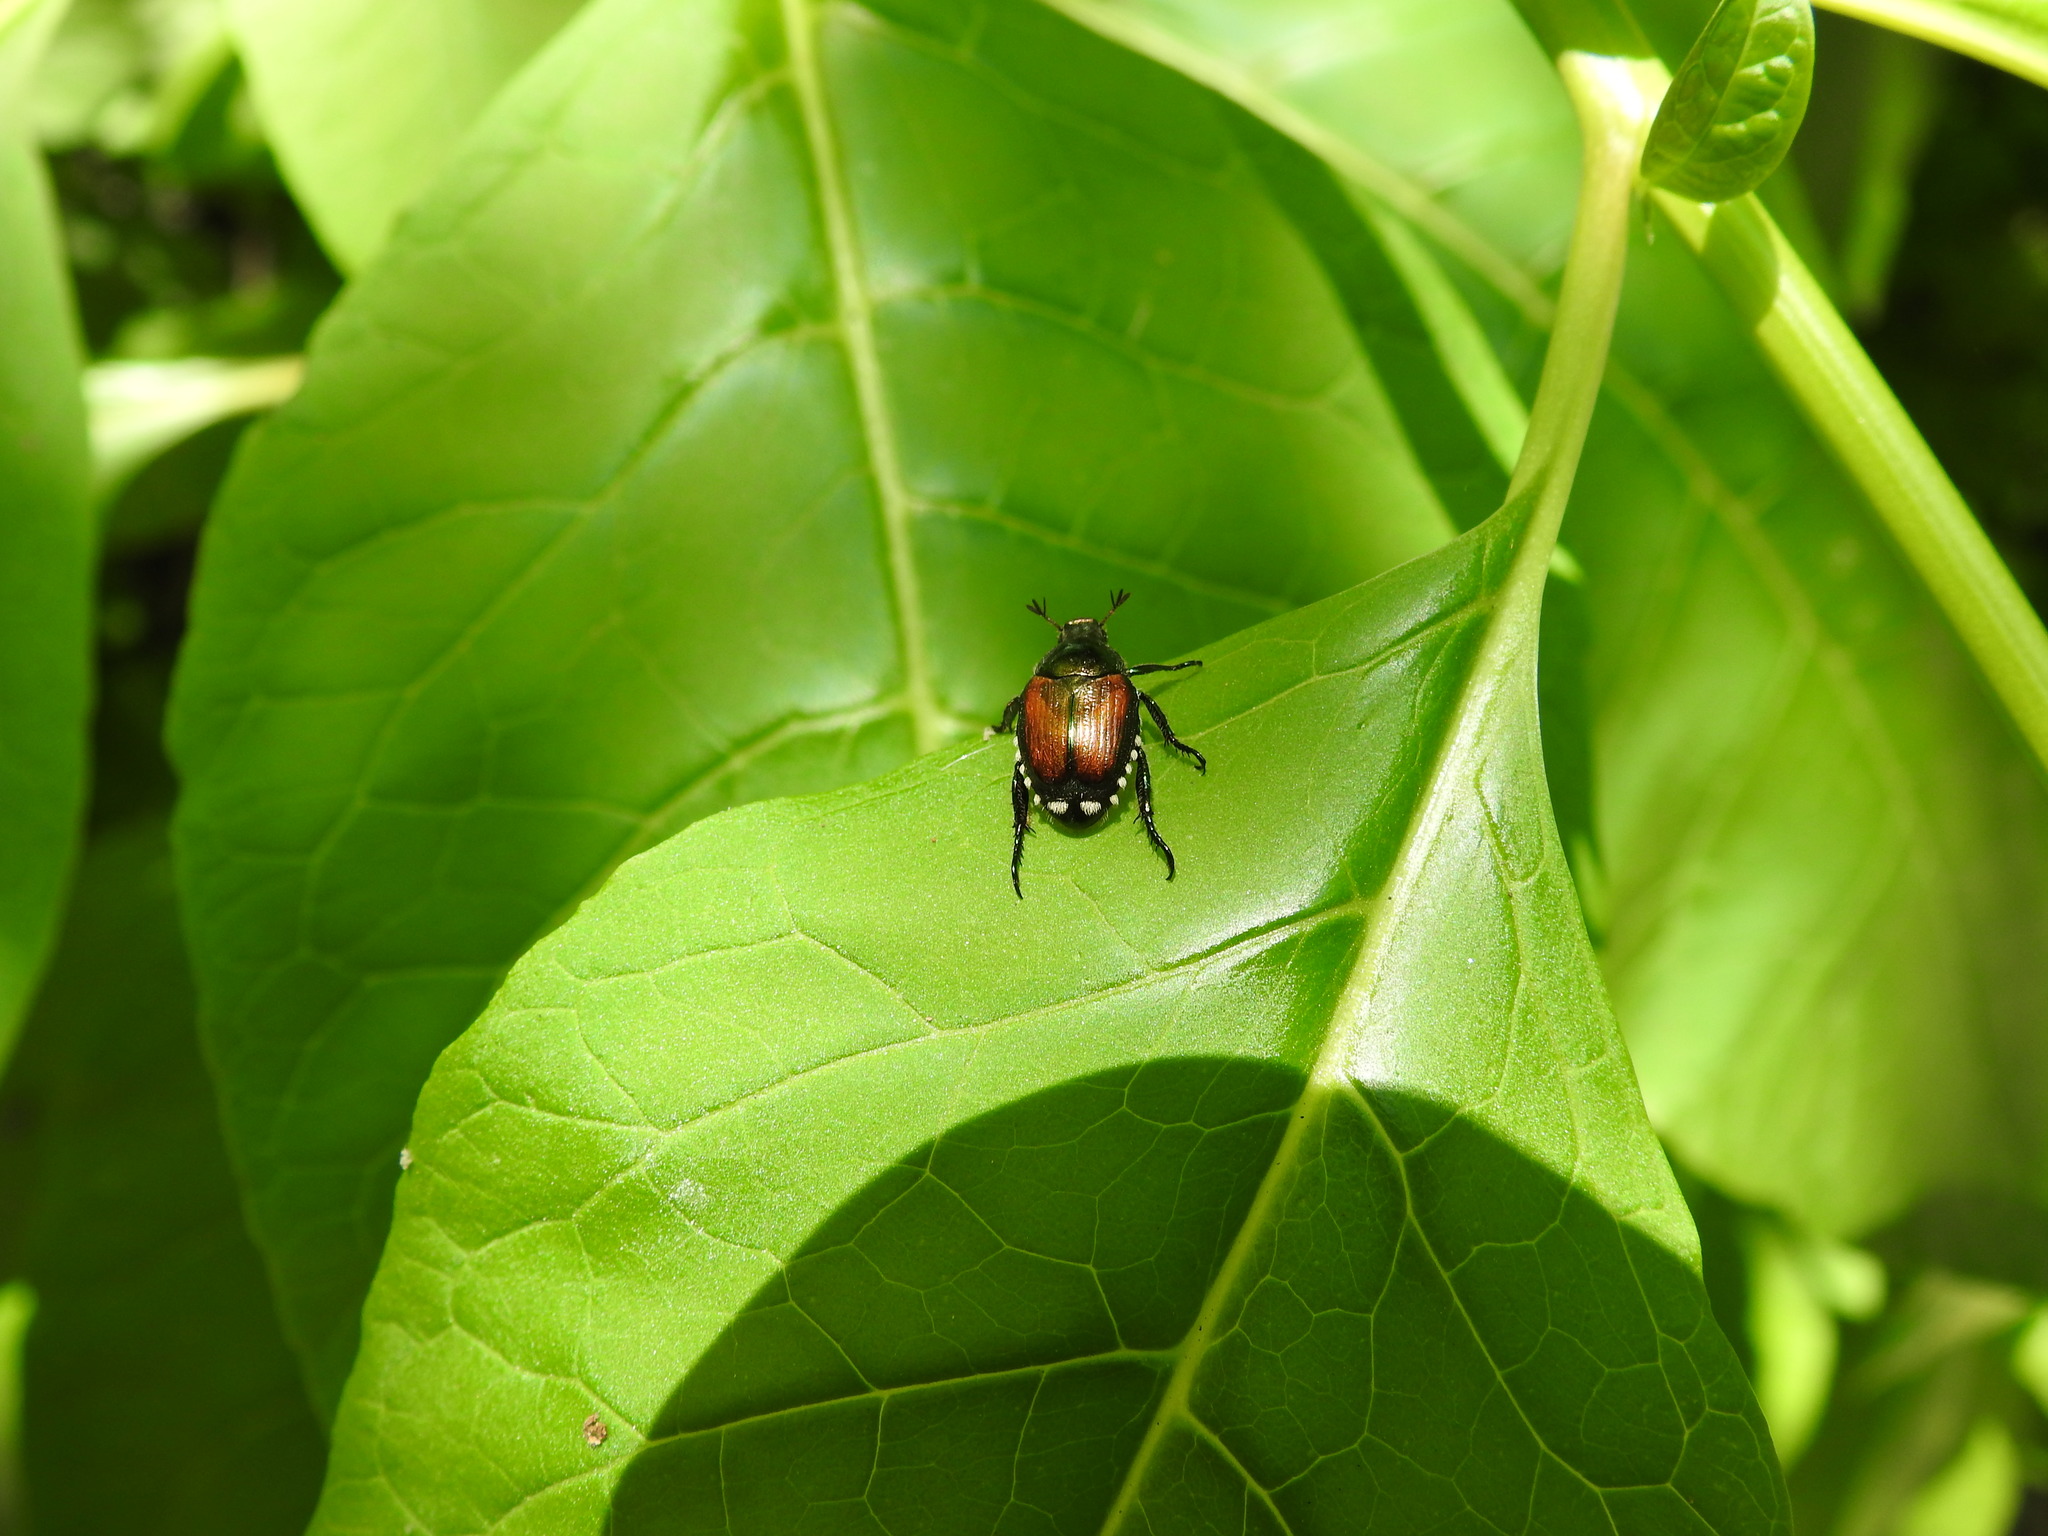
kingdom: Animalia
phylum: Arthropoda
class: Insecta
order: Coleoptera
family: Scarabaeidae
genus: Popillia
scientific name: Popillia japonica
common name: Japanese beetle
